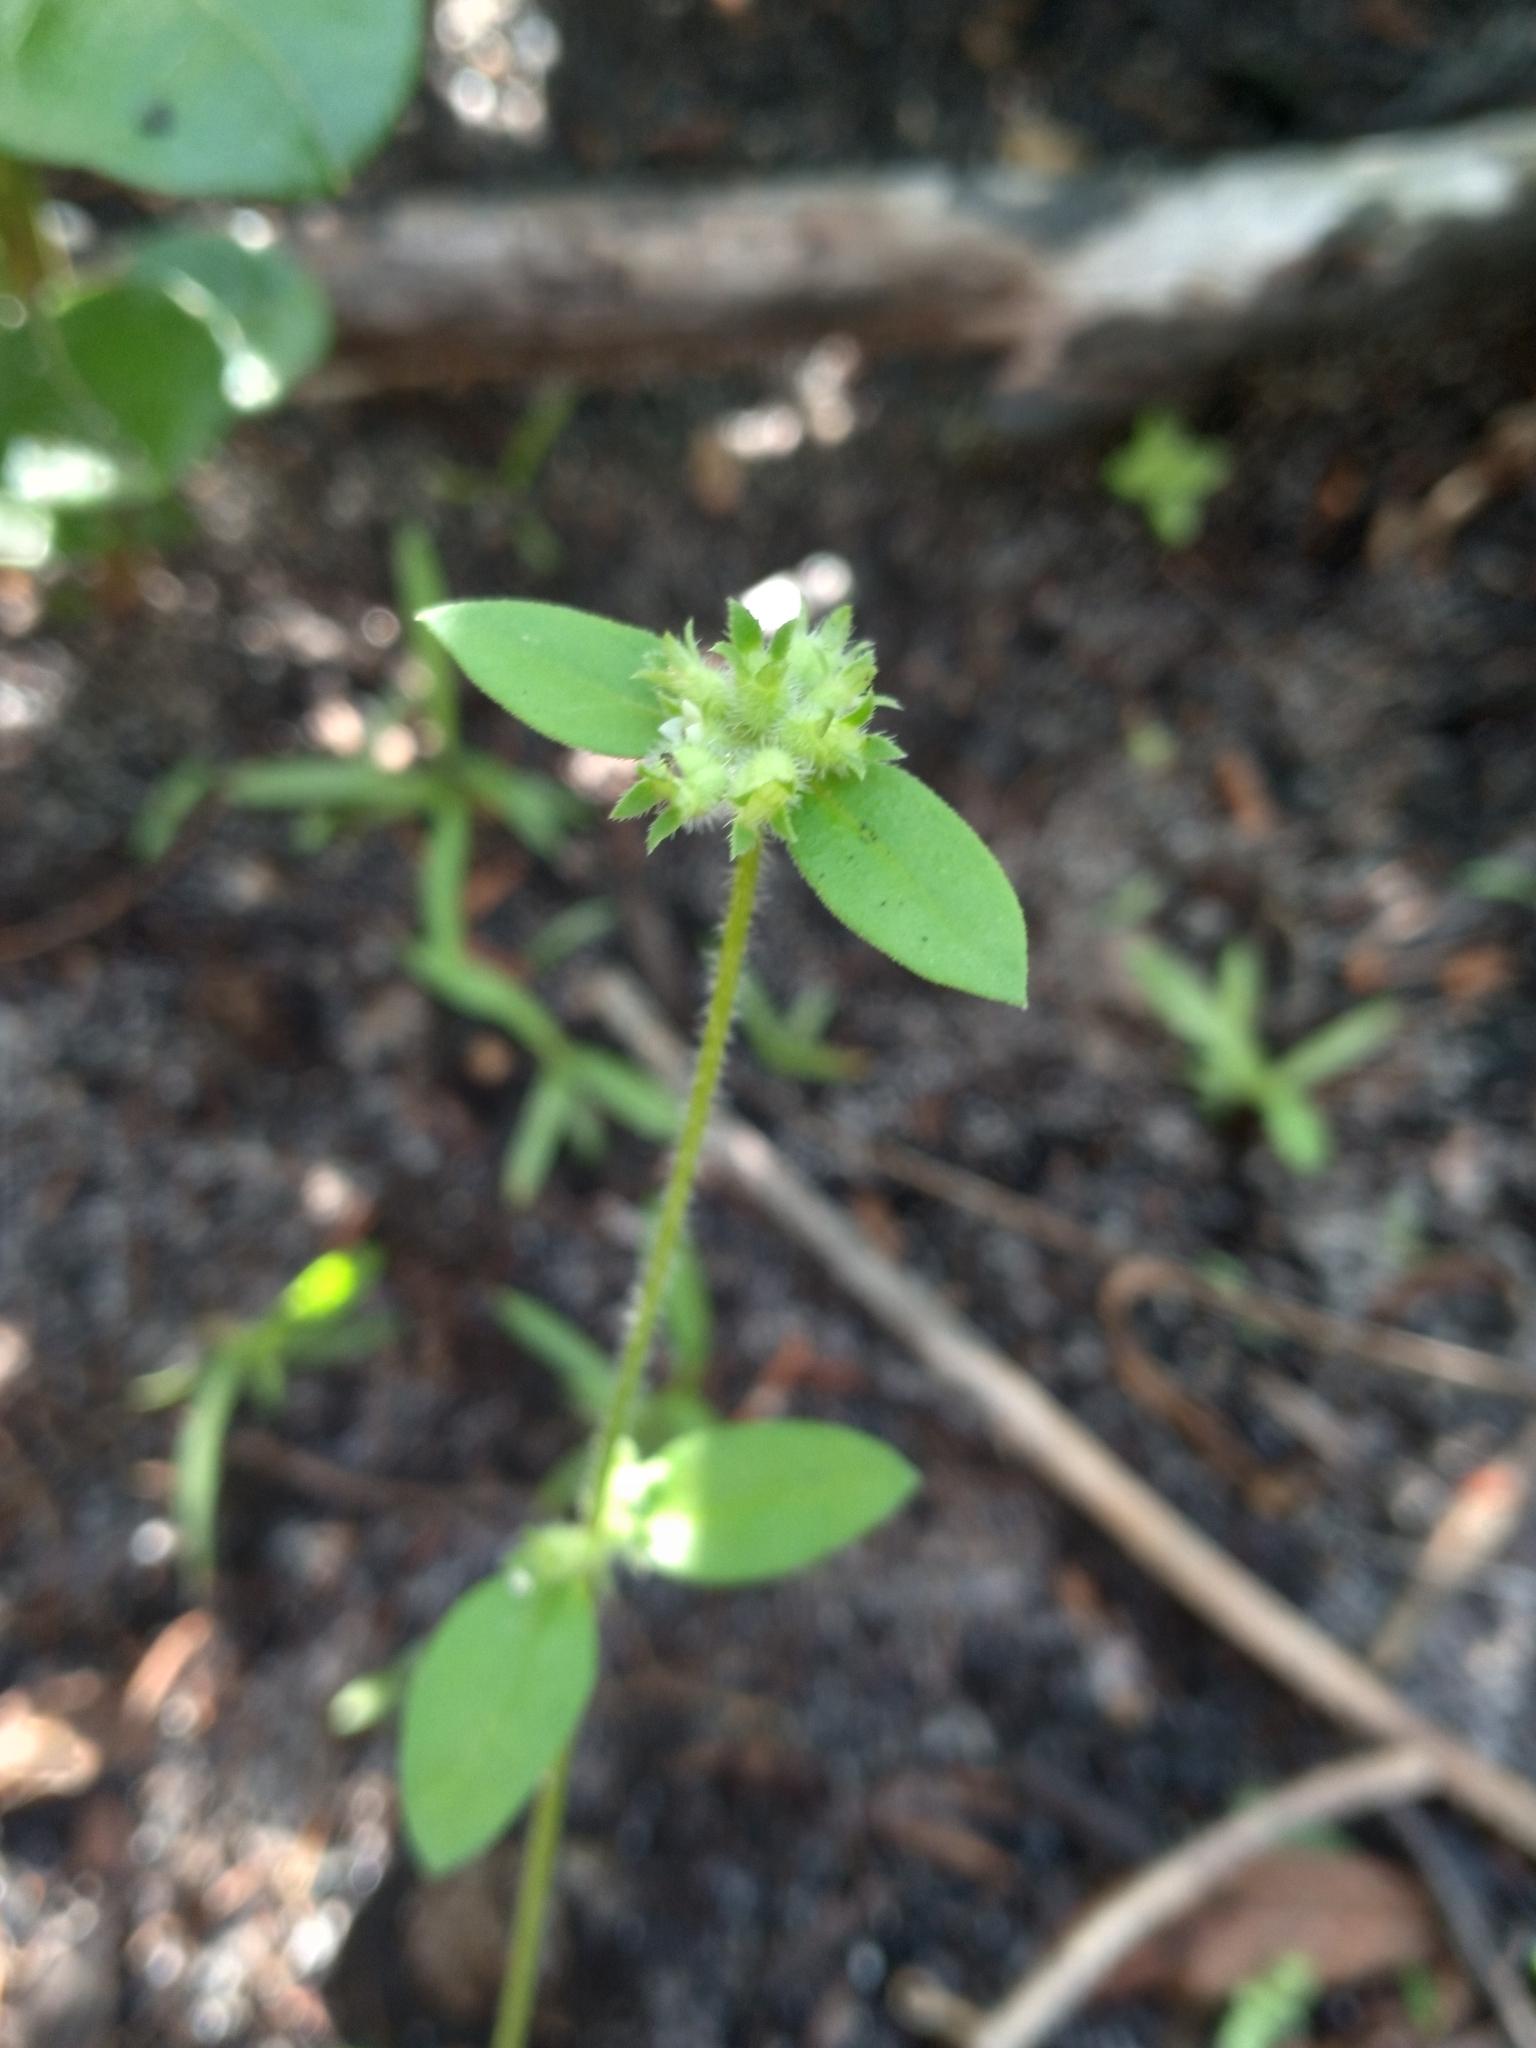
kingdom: Plantae
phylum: Tracheophyta
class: Magnoliopsida
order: Gentianales
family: Rubiaceae
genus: Edrastima
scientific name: Edrastima uniflora
